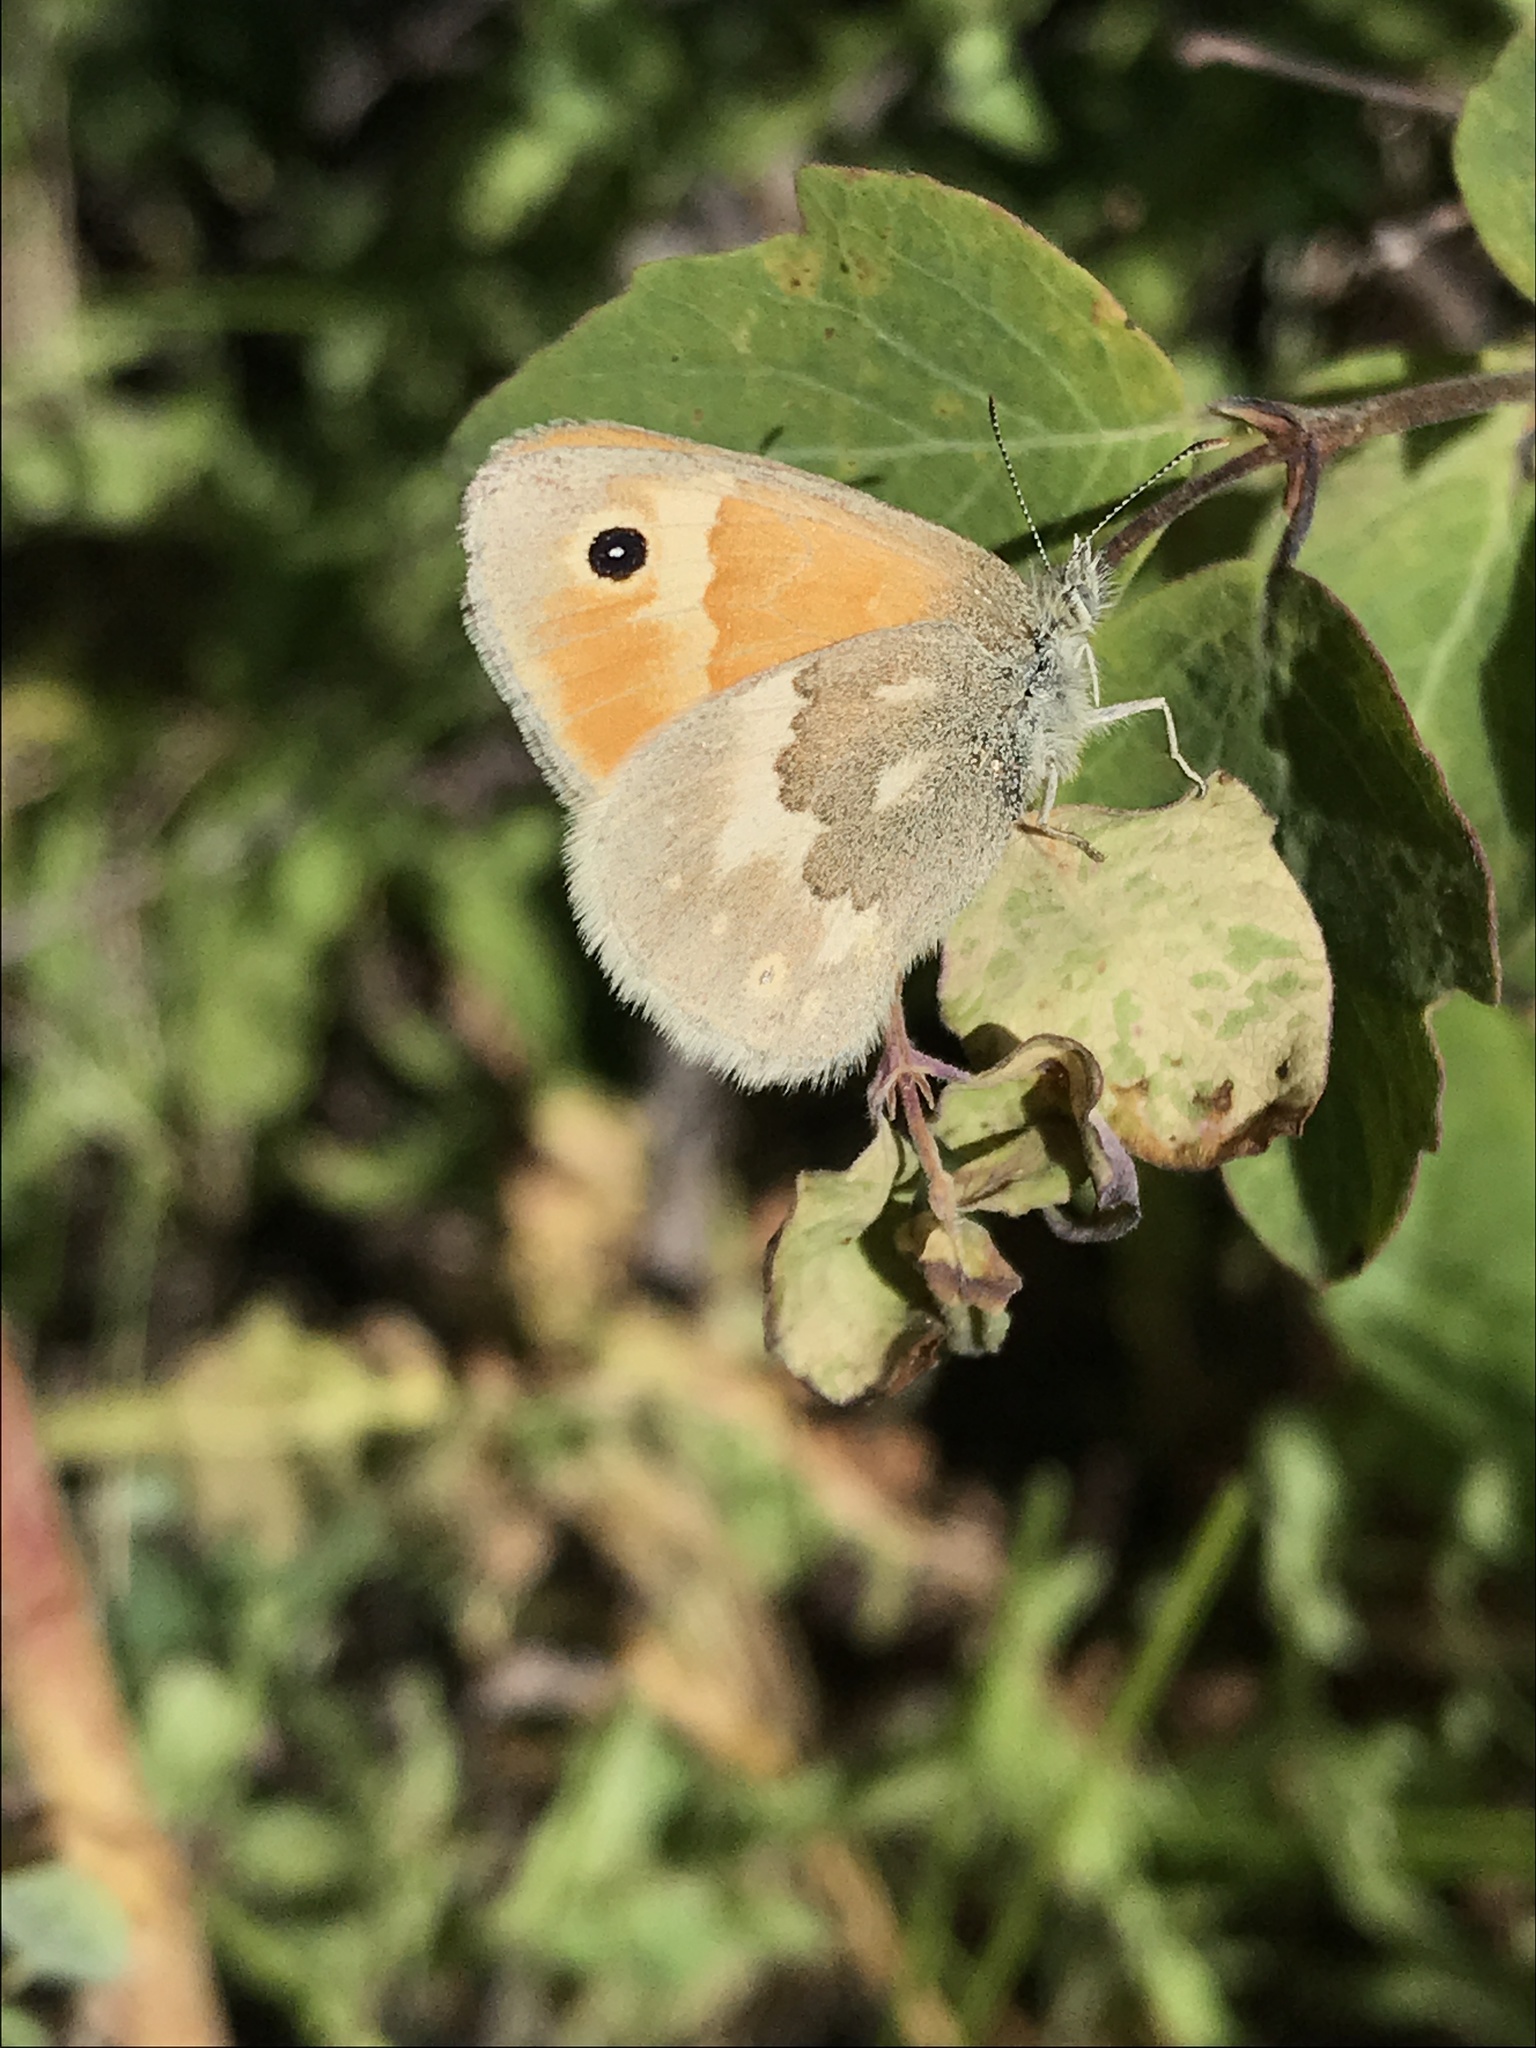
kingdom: Animalia
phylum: Arthropoda
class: Insecta
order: Lepidoptera
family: Nymphalidae
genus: Coenonympha
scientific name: Coenonympha california
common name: Common ringlet
